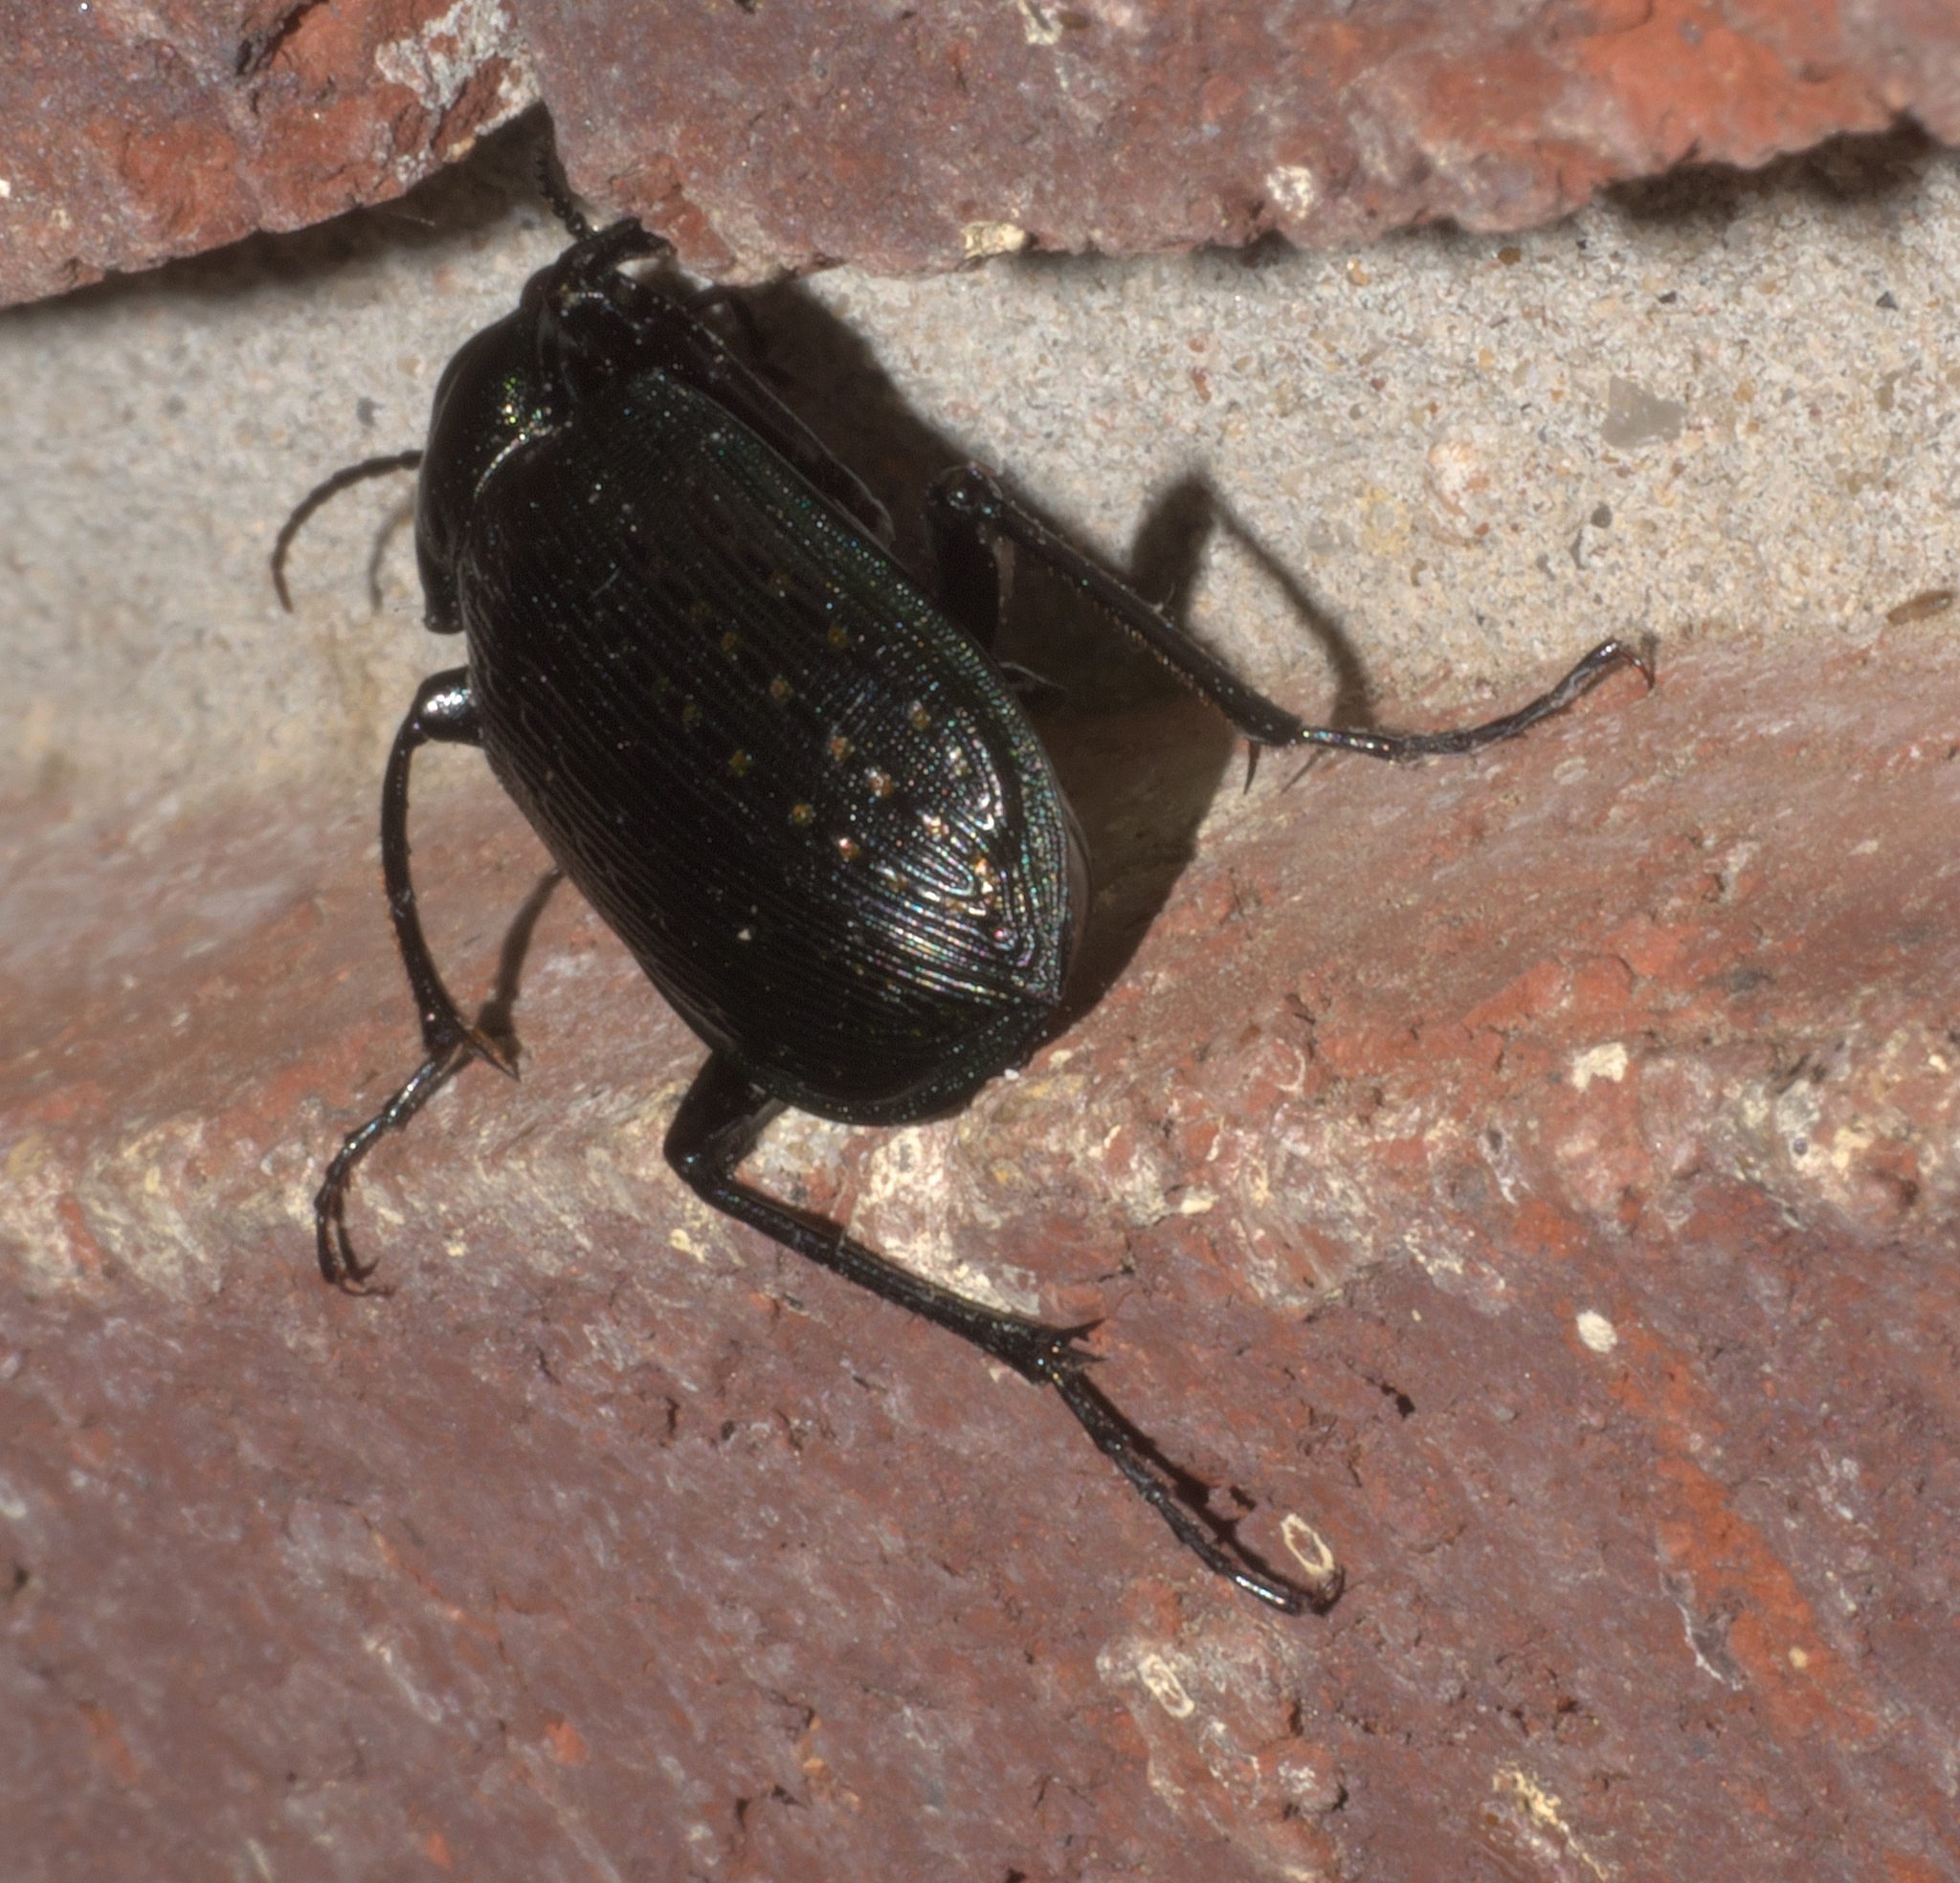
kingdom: Animalia
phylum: Arthropoda
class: Insecta
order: Coleoptera
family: Carabidae
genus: Calosoma
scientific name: Calosoma sayi
